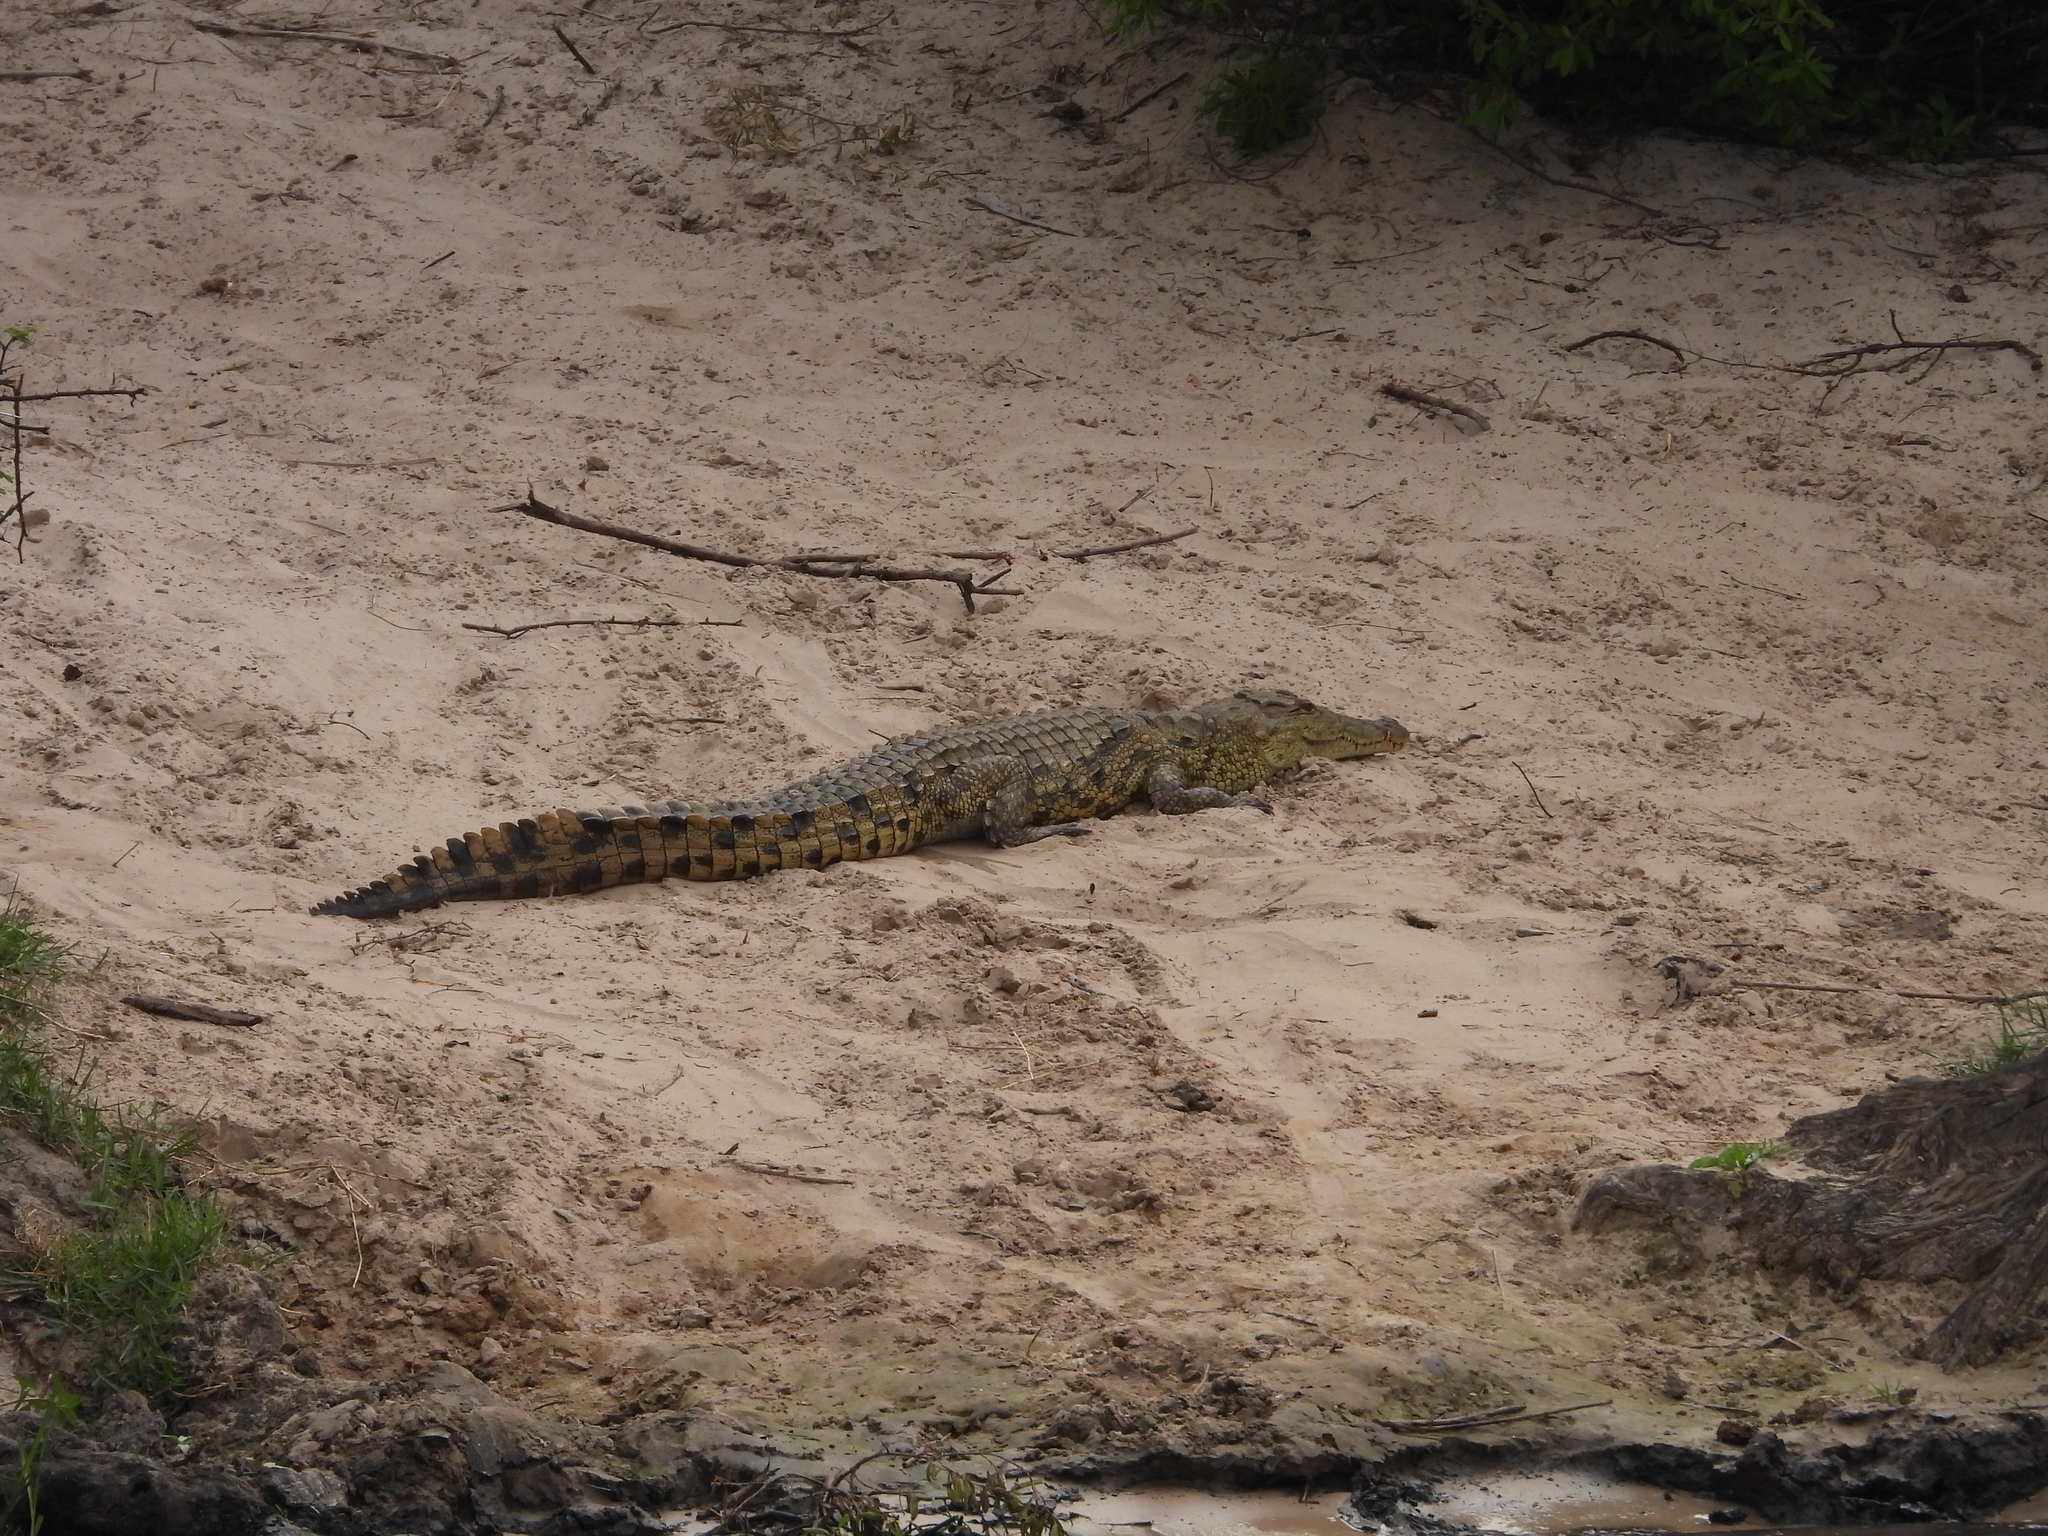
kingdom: Animalia
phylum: Chordata
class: Crocodylia
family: Crocodylidae
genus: Crocodylus
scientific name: Crocodylus niloticus
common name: Nile crocodile
